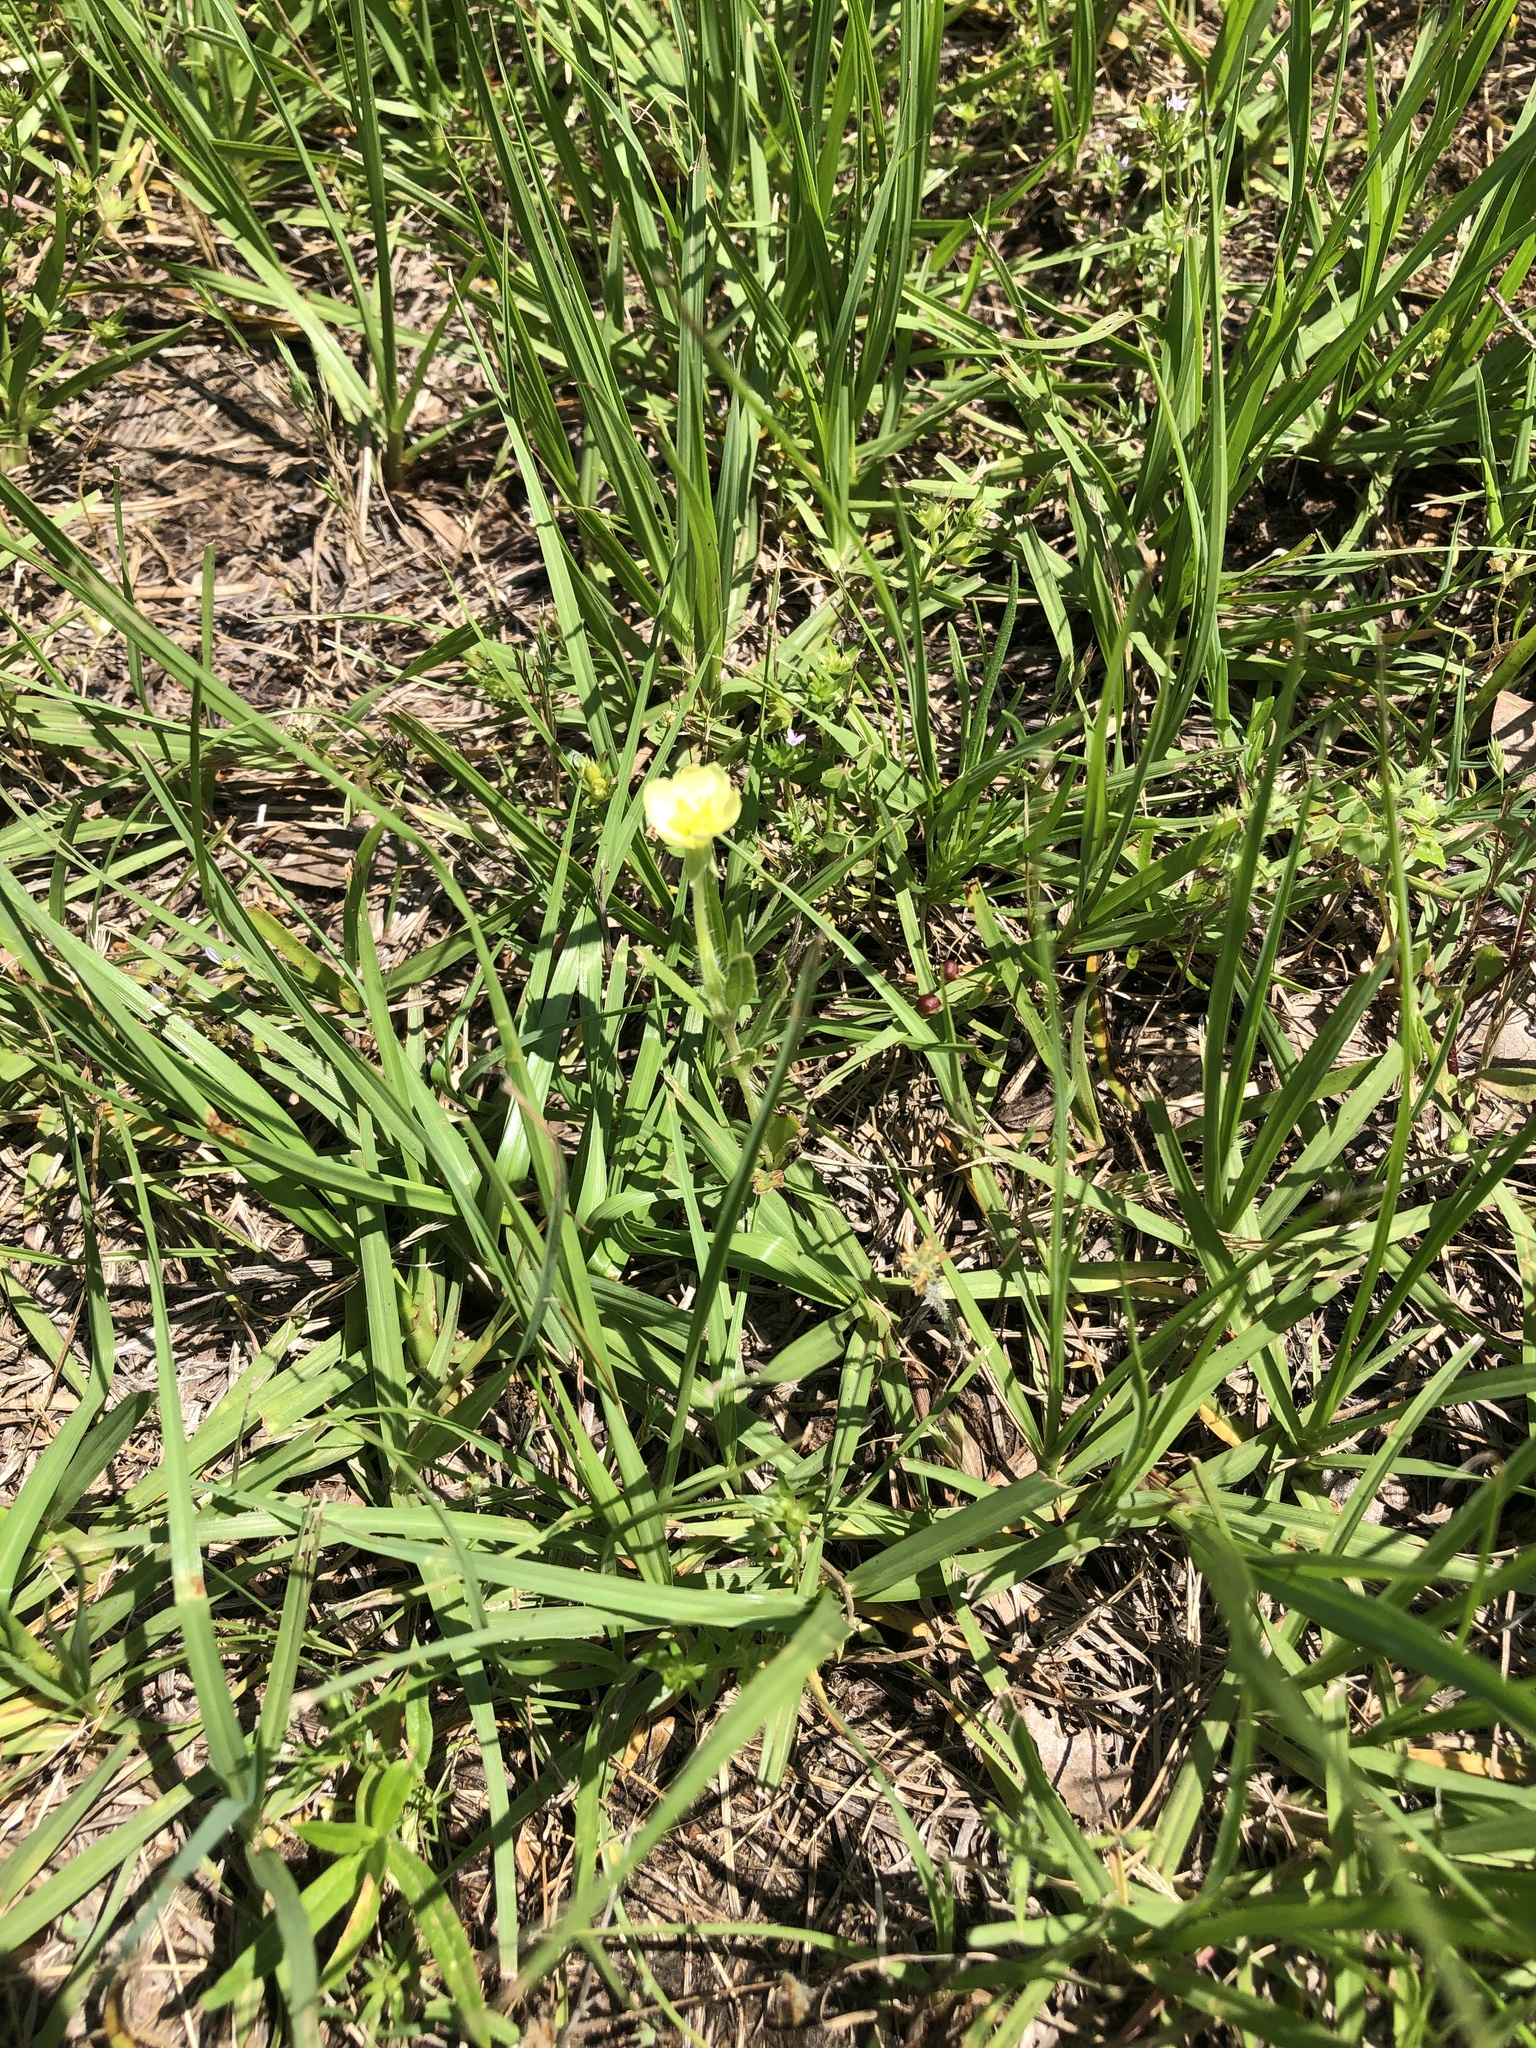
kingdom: Plantae
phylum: Tracheophyta
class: Magnoliopsida
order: Myrtales
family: Onagraceae
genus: Oenothera
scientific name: Oenothera laciniata
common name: Cut-leaved evening-primrose
